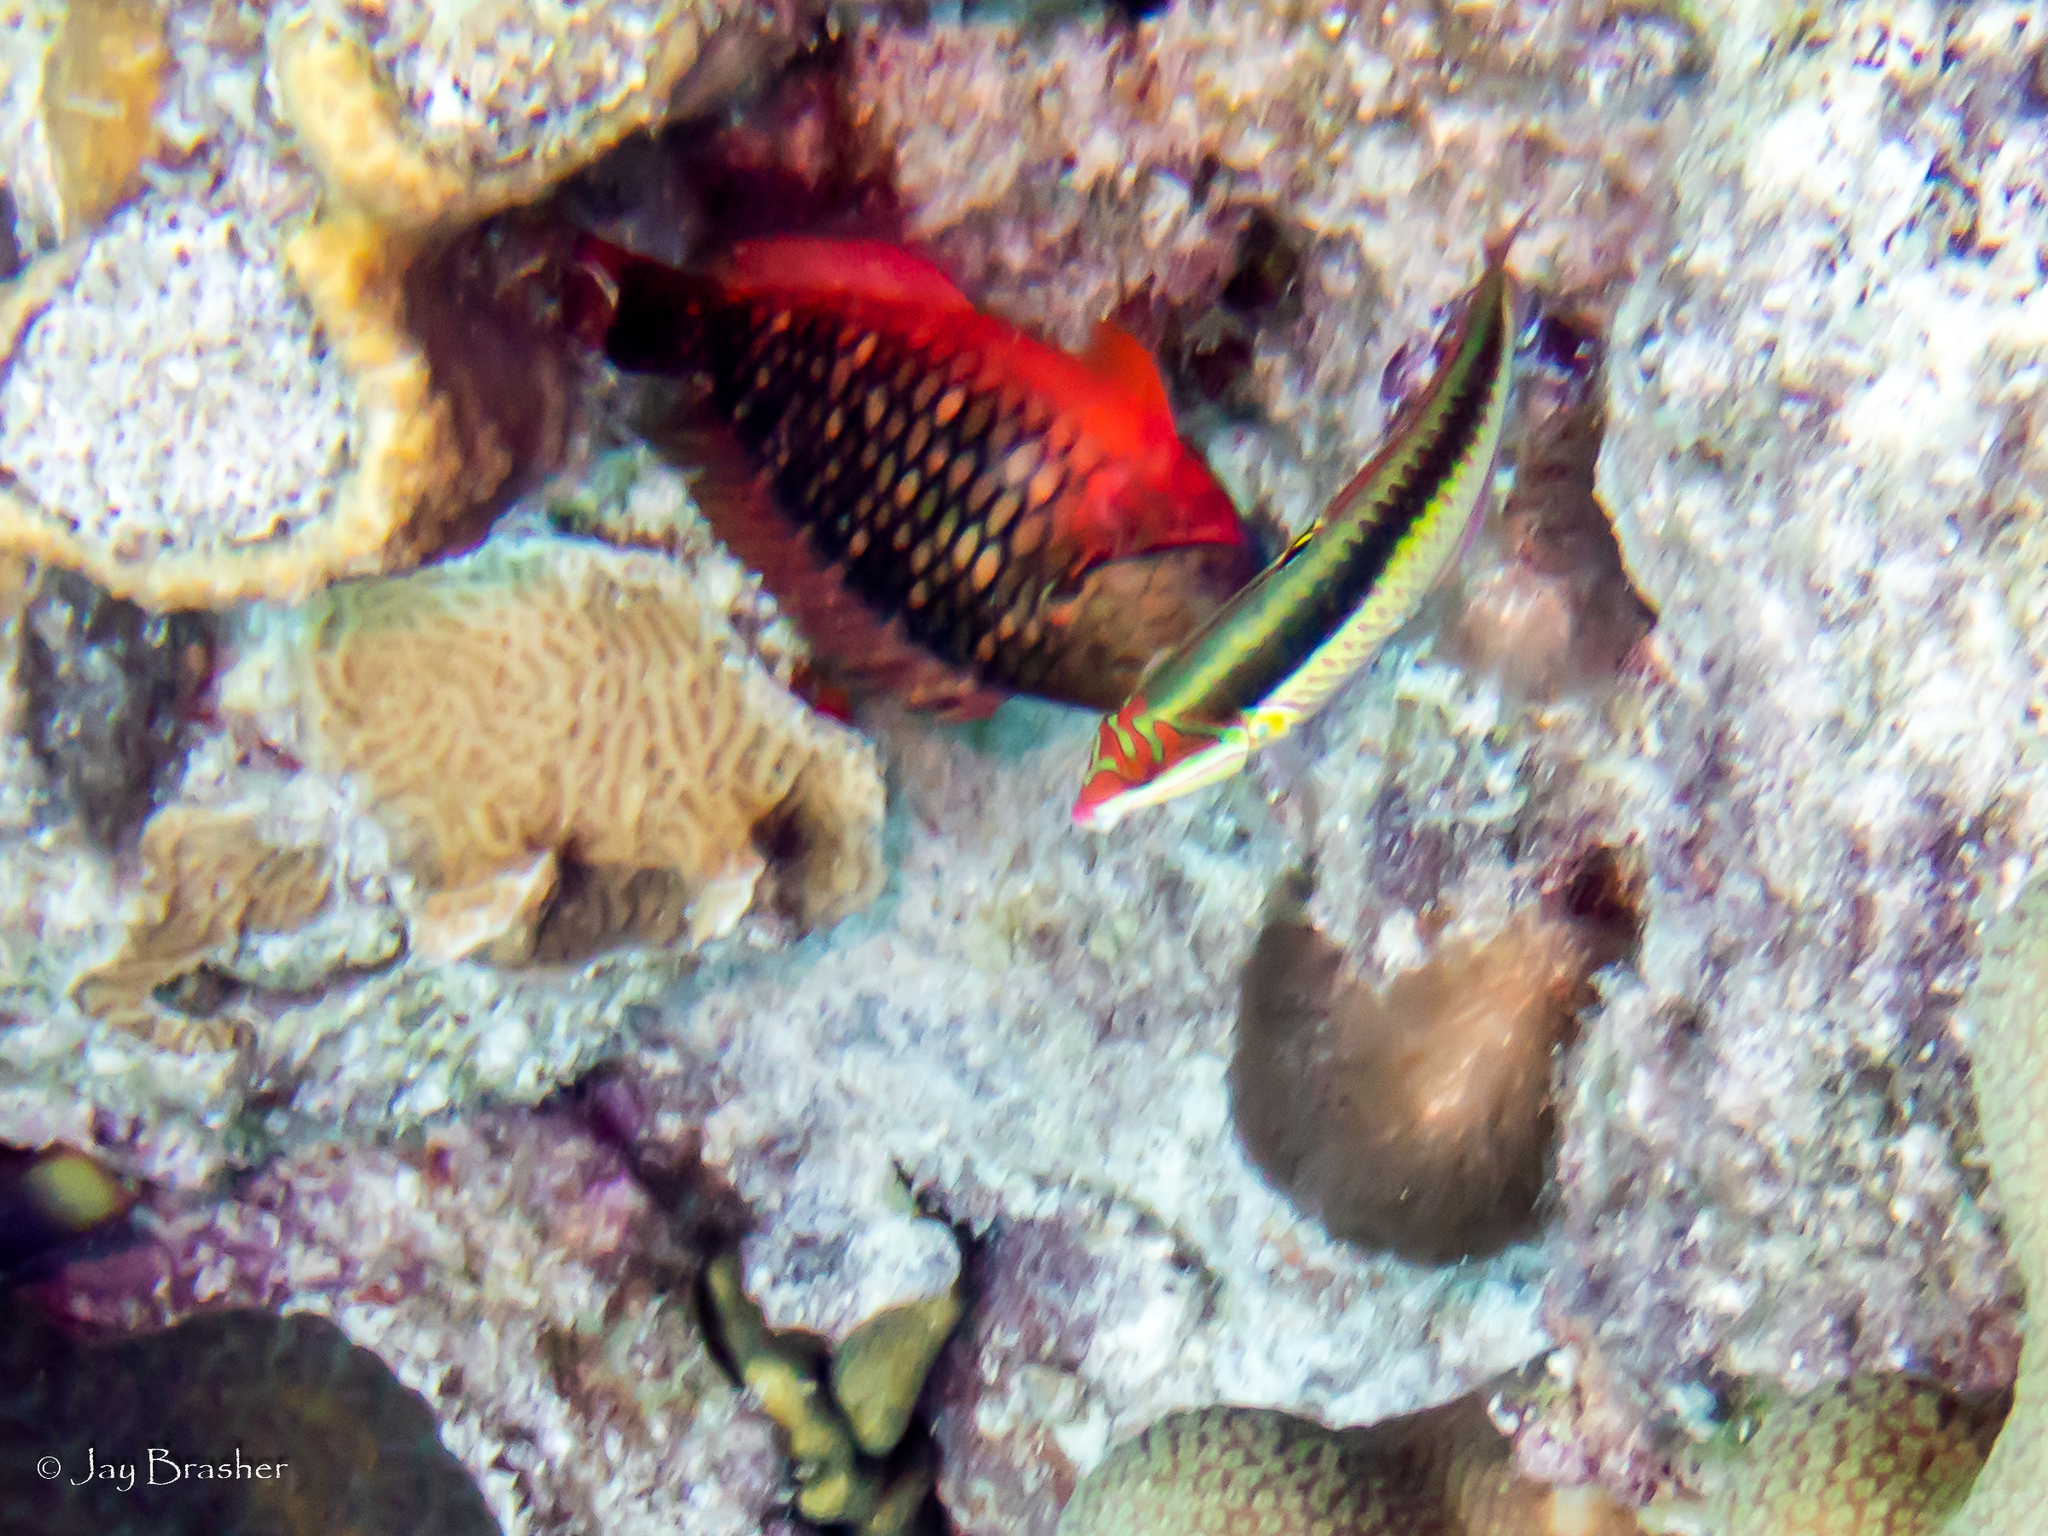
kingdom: Animalia
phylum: Chordata
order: Perciformes
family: Labridae
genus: Halichoeres
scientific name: Halichoeres maculipinna
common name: Clown wrasse
